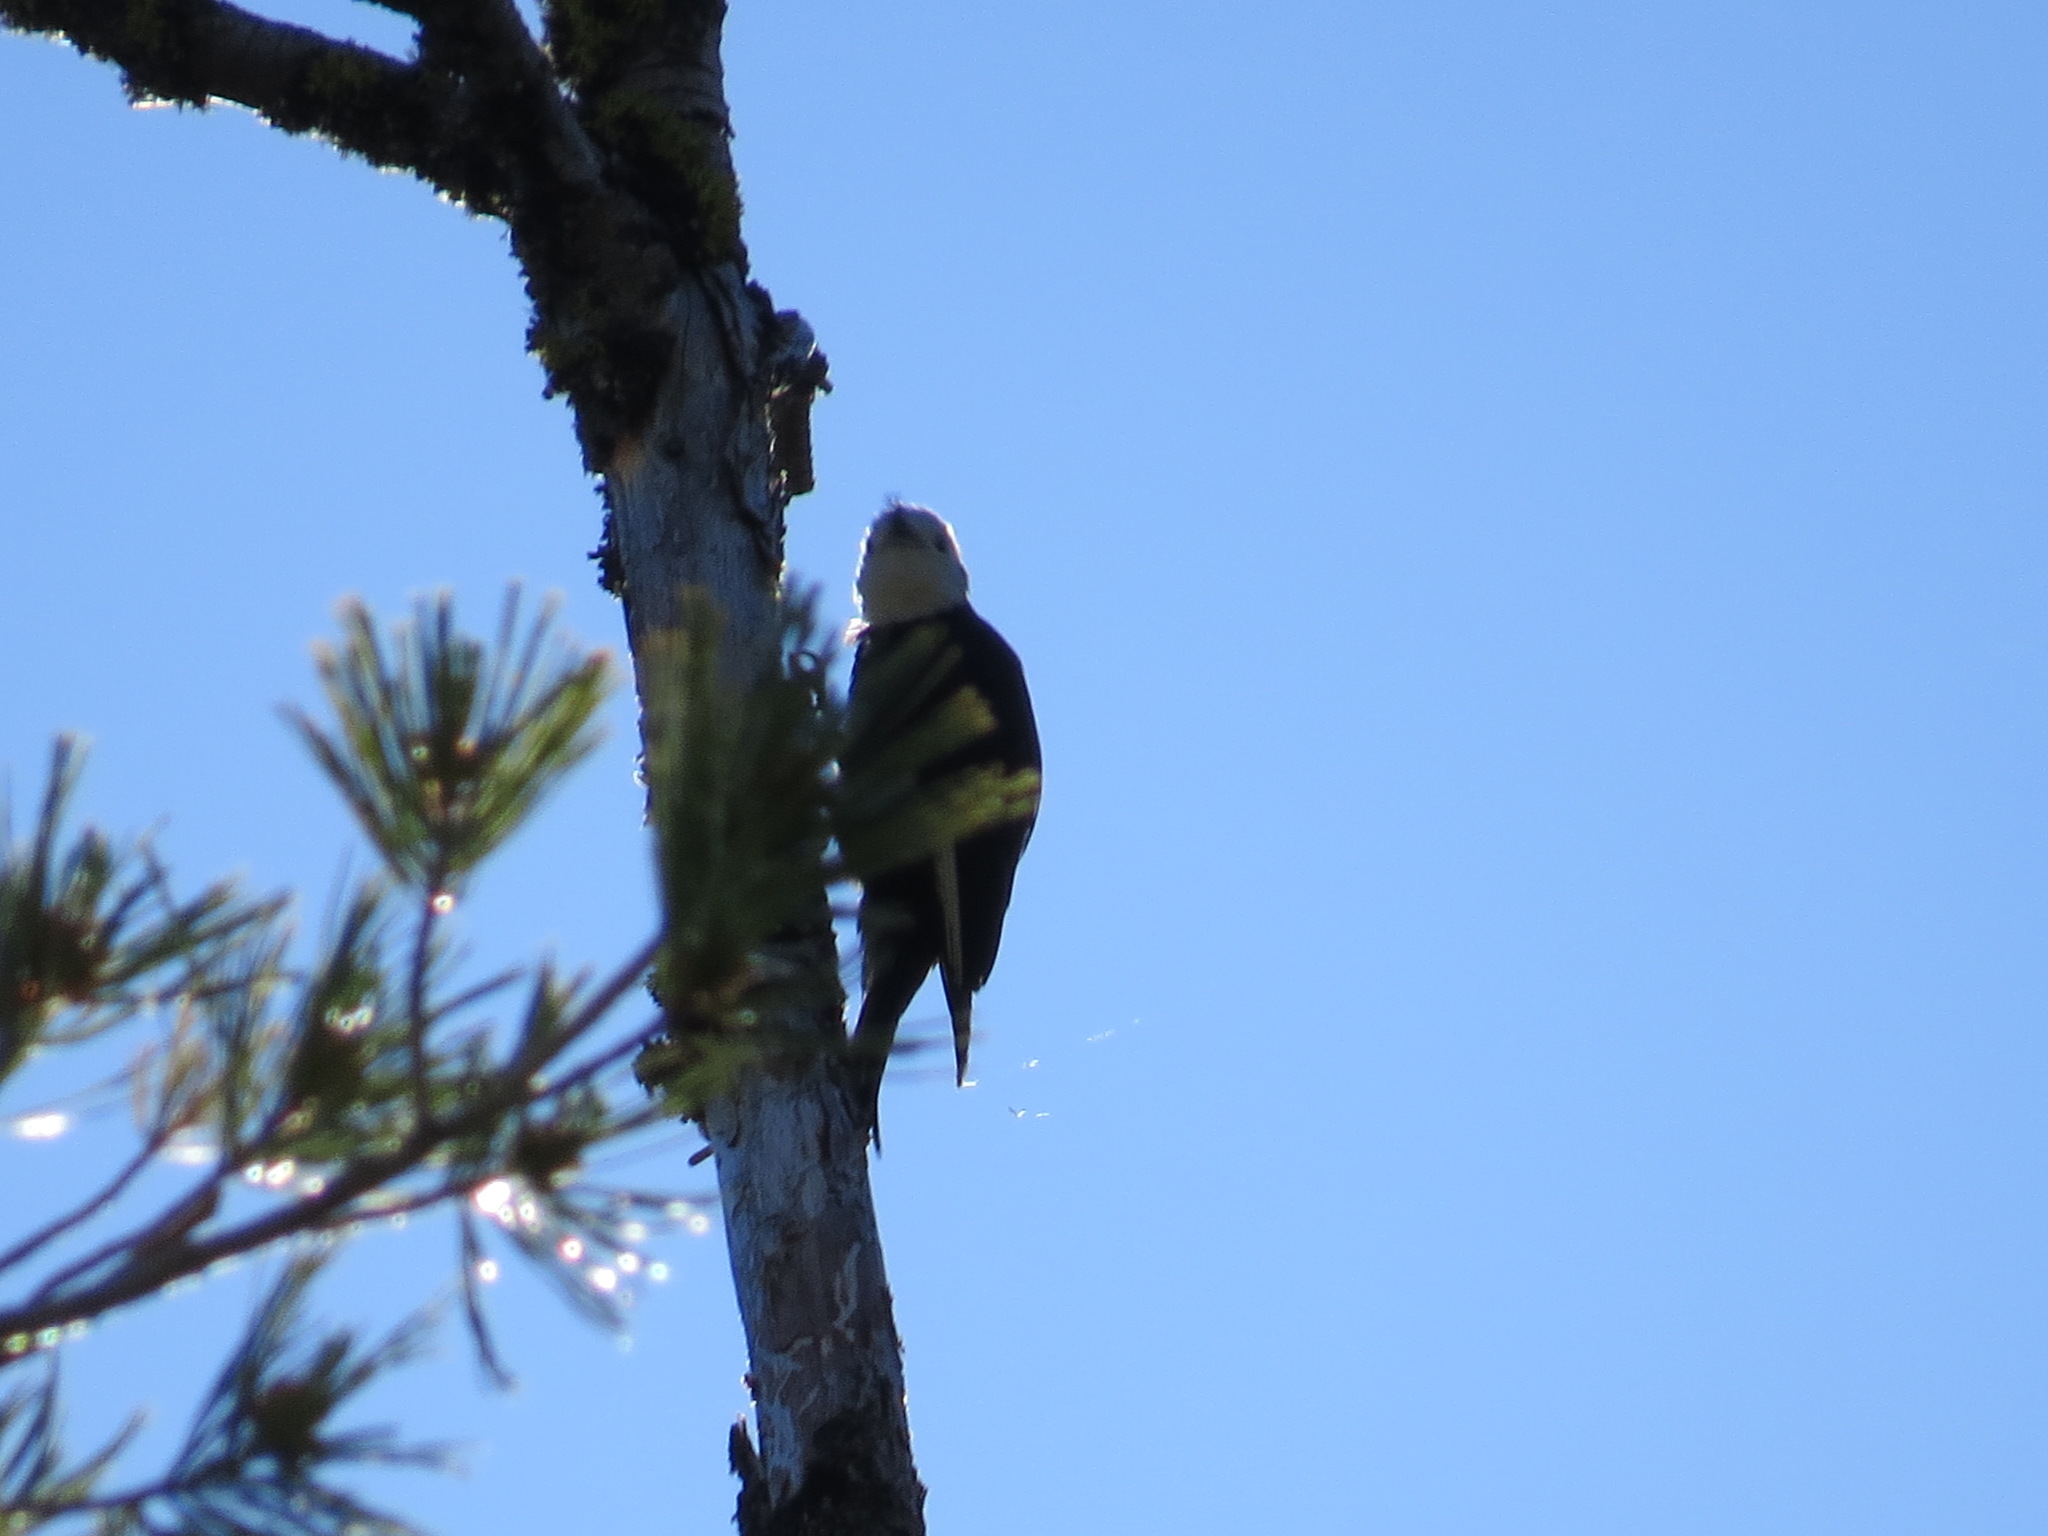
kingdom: Animalia
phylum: Chordata
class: Aves
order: Piciformes
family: Picidae
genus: Leuconotopicus
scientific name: Leuconotopicus albolarvatus
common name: White-headed woodpecker
